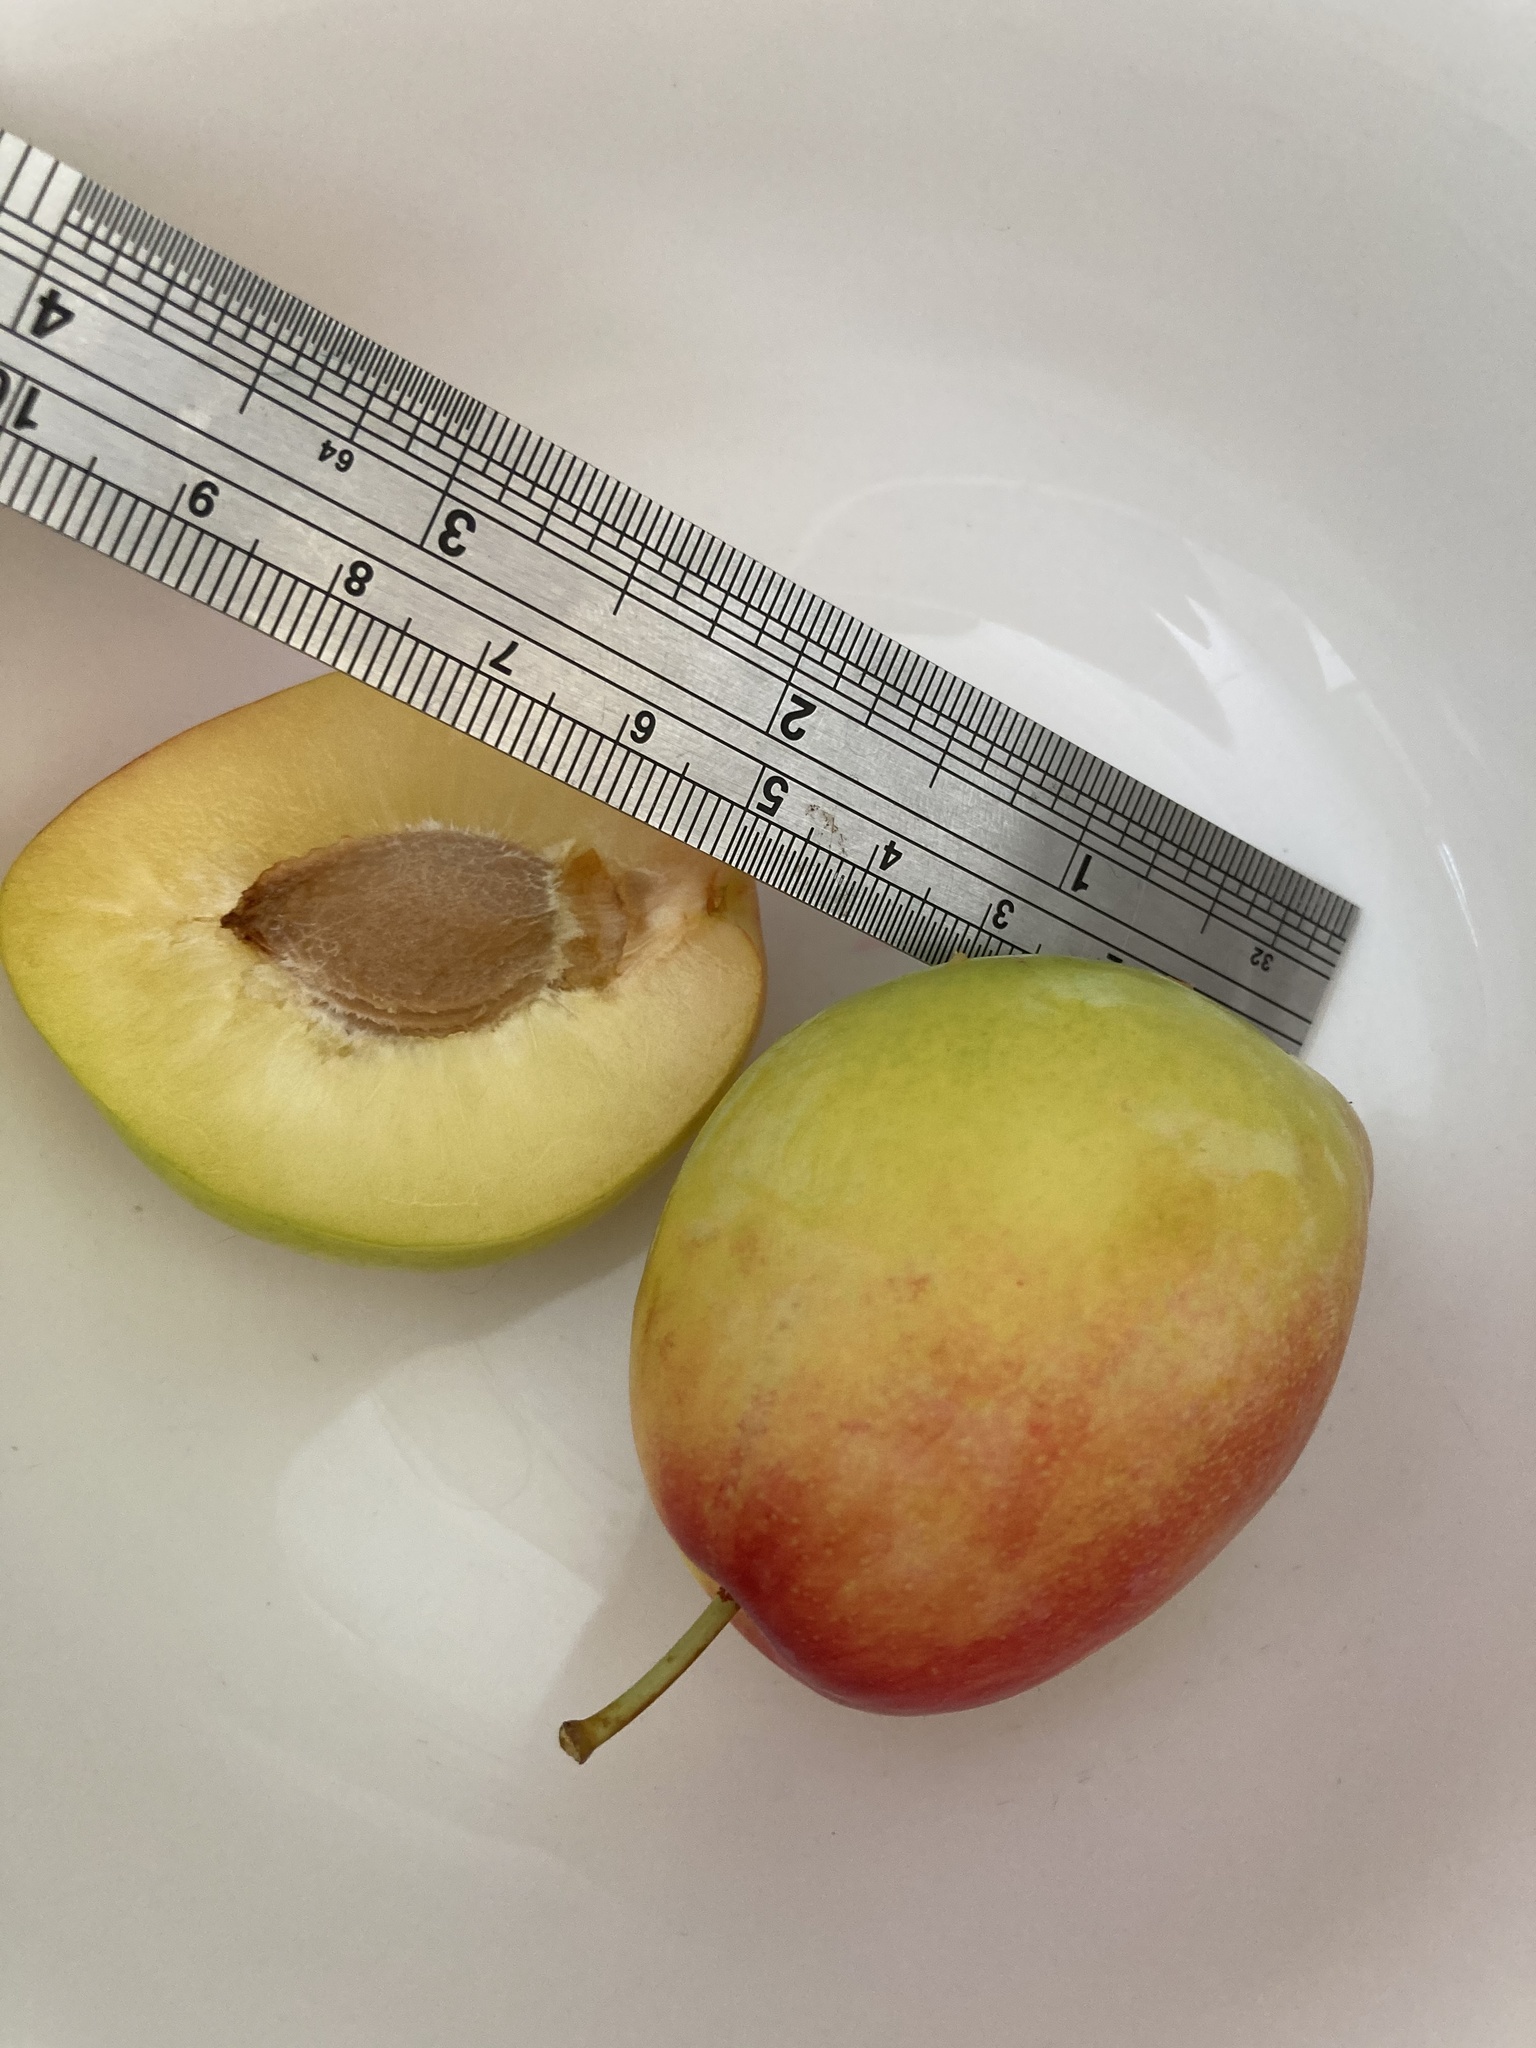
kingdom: Plantae
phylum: Tracheophyta
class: Magnoliopsida
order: Rosales
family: Rosaceae
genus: Prunus
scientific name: Prunus domestica
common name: Wild plum
